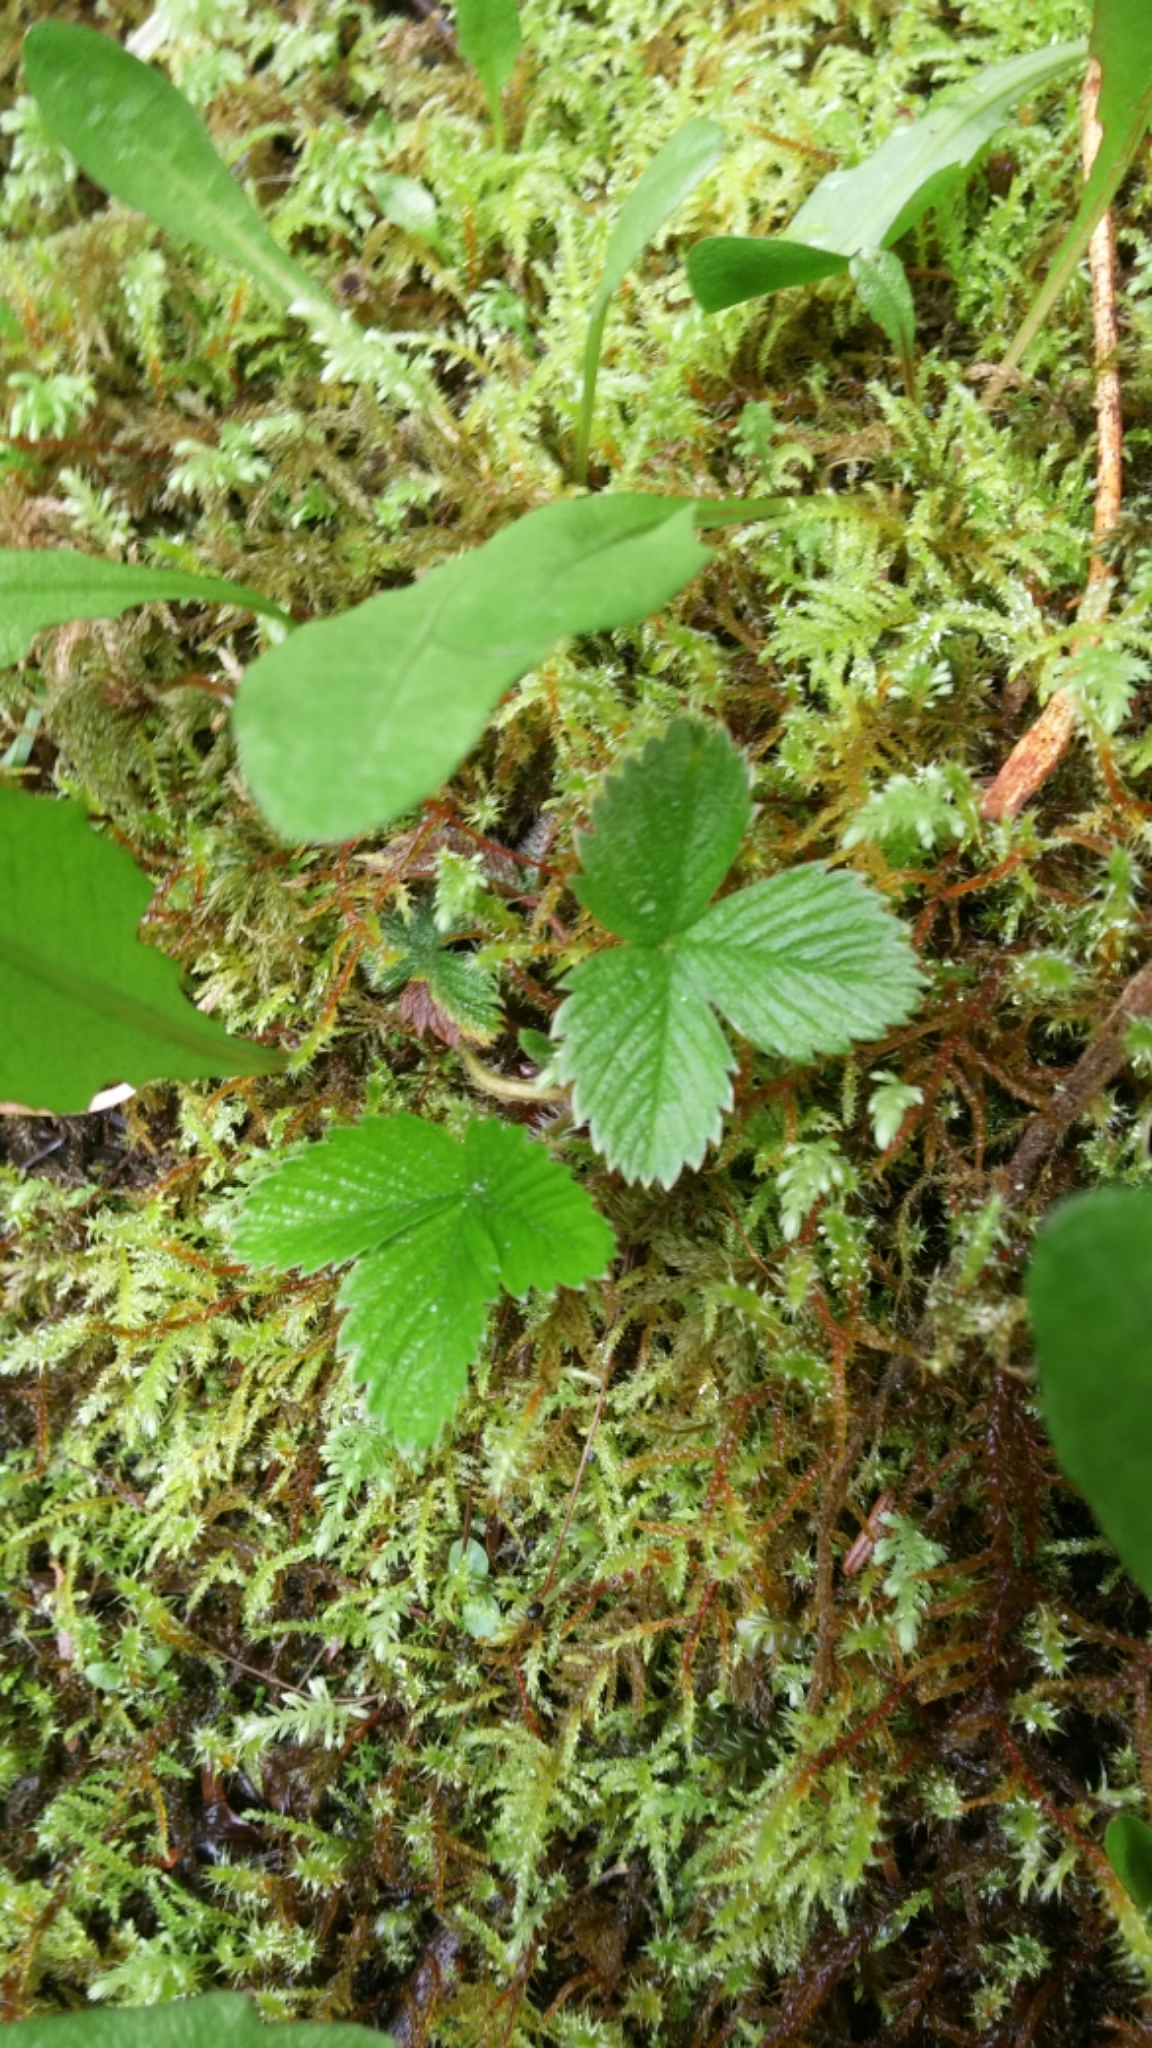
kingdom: Plantae
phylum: Tracheophyta
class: Magnoliopsida
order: Rosales
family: Rosaceae
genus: Fragaria
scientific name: Fragaria vesca
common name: Wild strawberry
